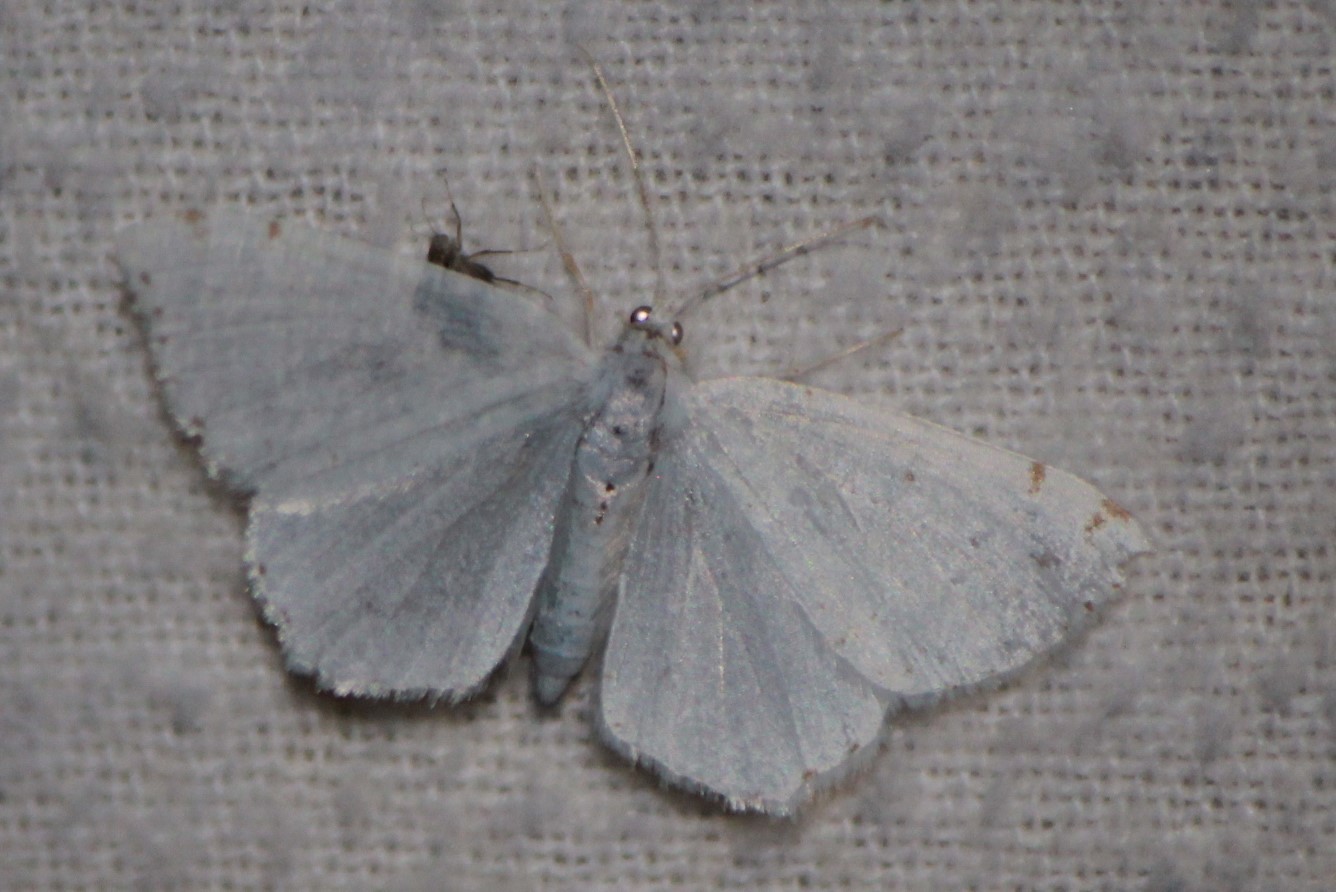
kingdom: Animalia
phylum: Arthropoda
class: Insecta
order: Lepidoptera
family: Geometridae
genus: Macaria
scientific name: Macaria pustularia
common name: Lesser maple spanworm moth
